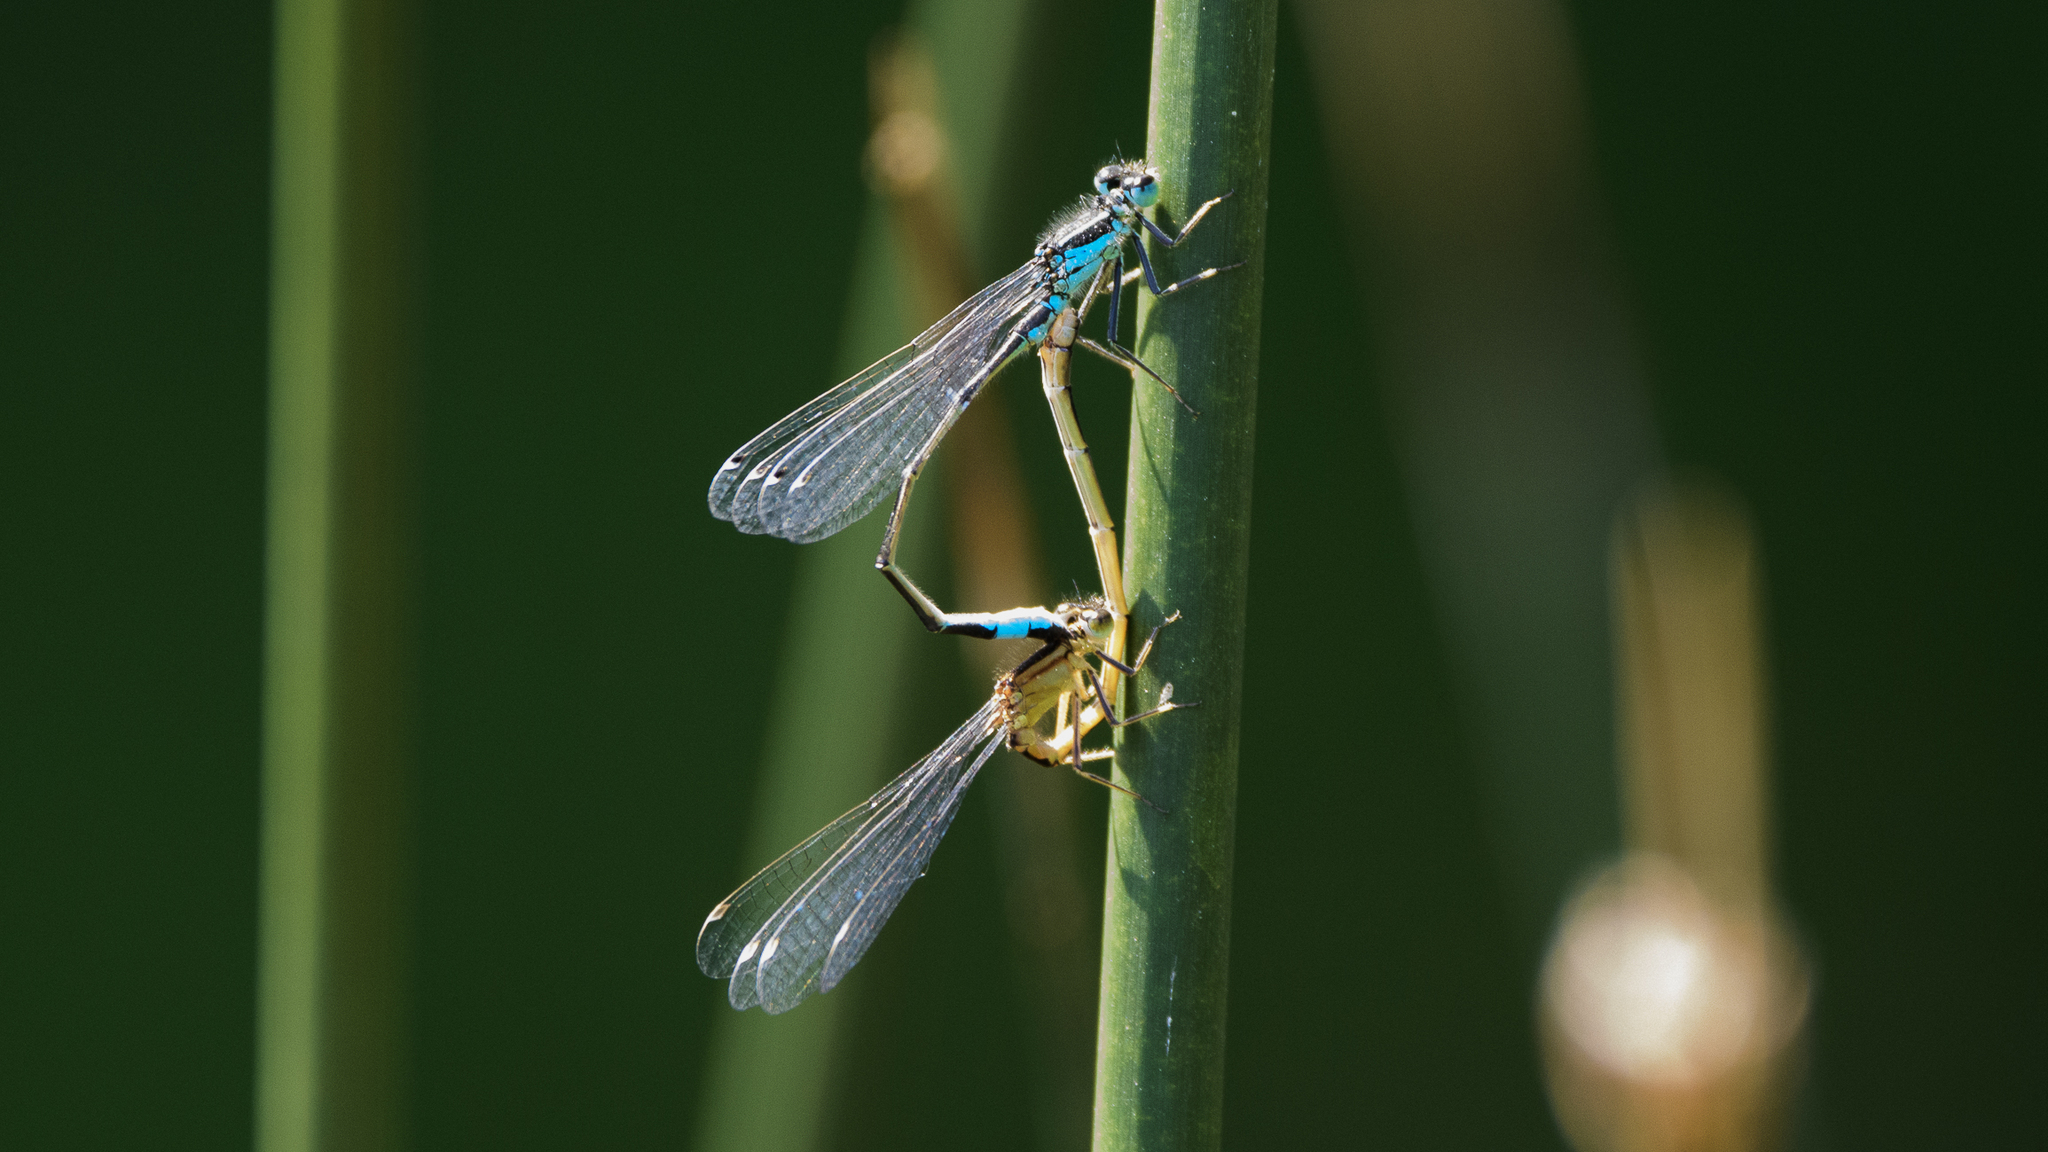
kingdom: Animalia
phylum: Arthropoda
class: Insecta
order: Odonata
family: Coenagrionidae
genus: Ischnura
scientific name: Ischnura elegans
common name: Blue-tailed damselfly
